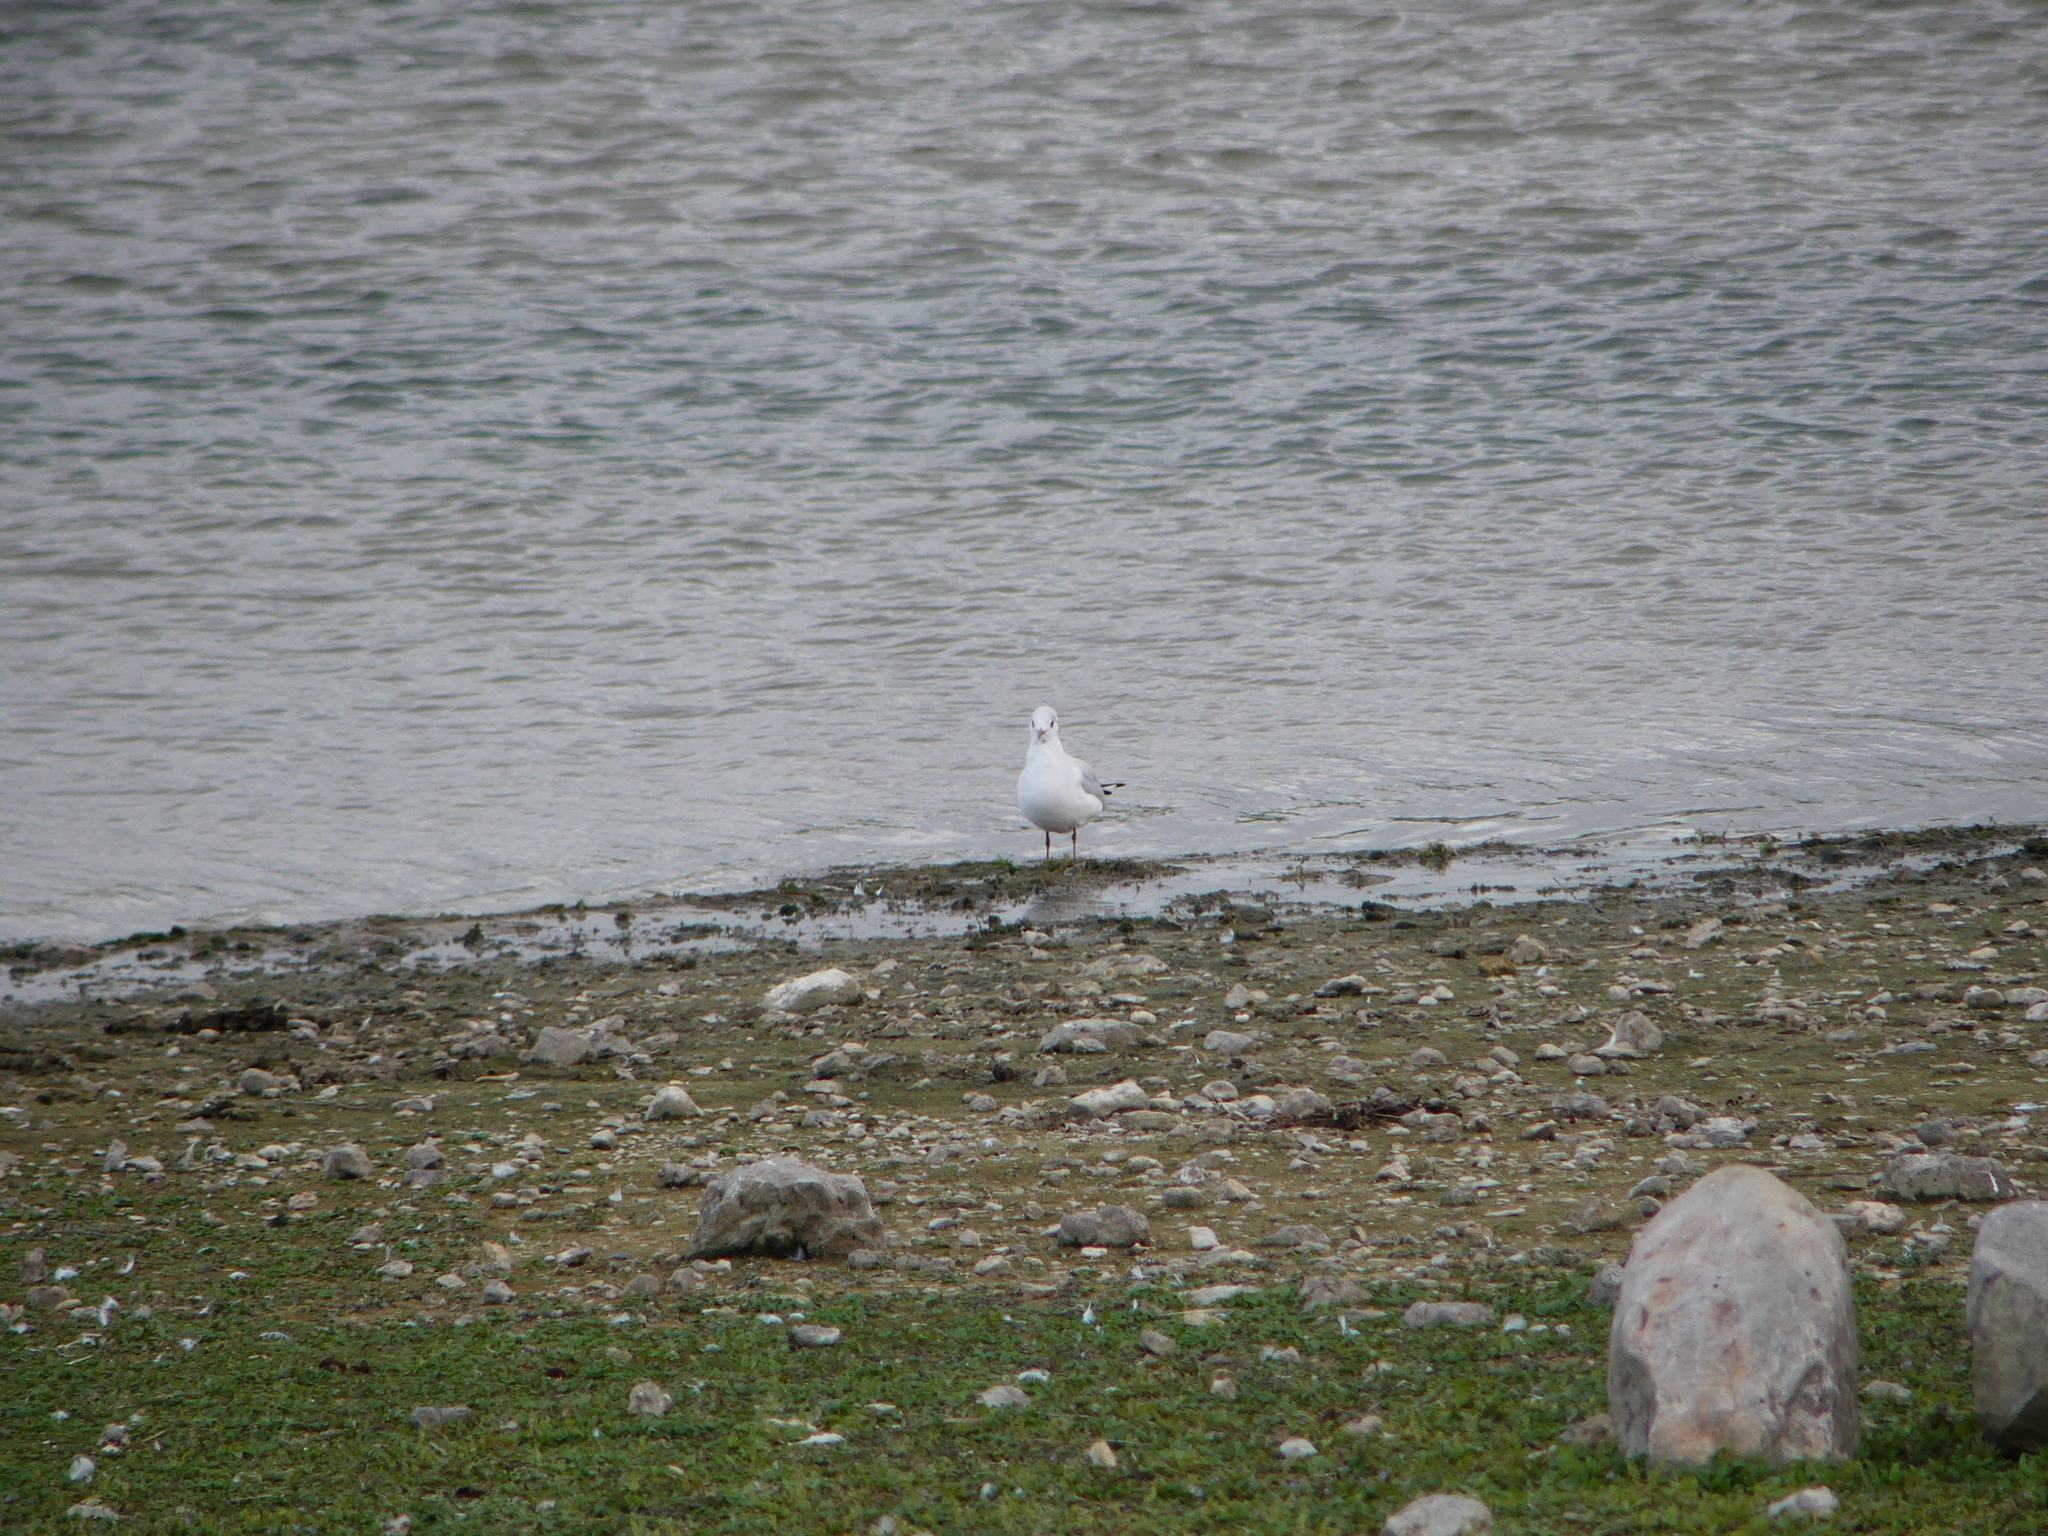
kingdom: Animalia
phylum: Chordata
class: Aves
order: Charadriiformes
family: Laridae
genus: Chroicocephalus
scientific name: Chroicocephalus ridibundus
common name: Black-headed gull
